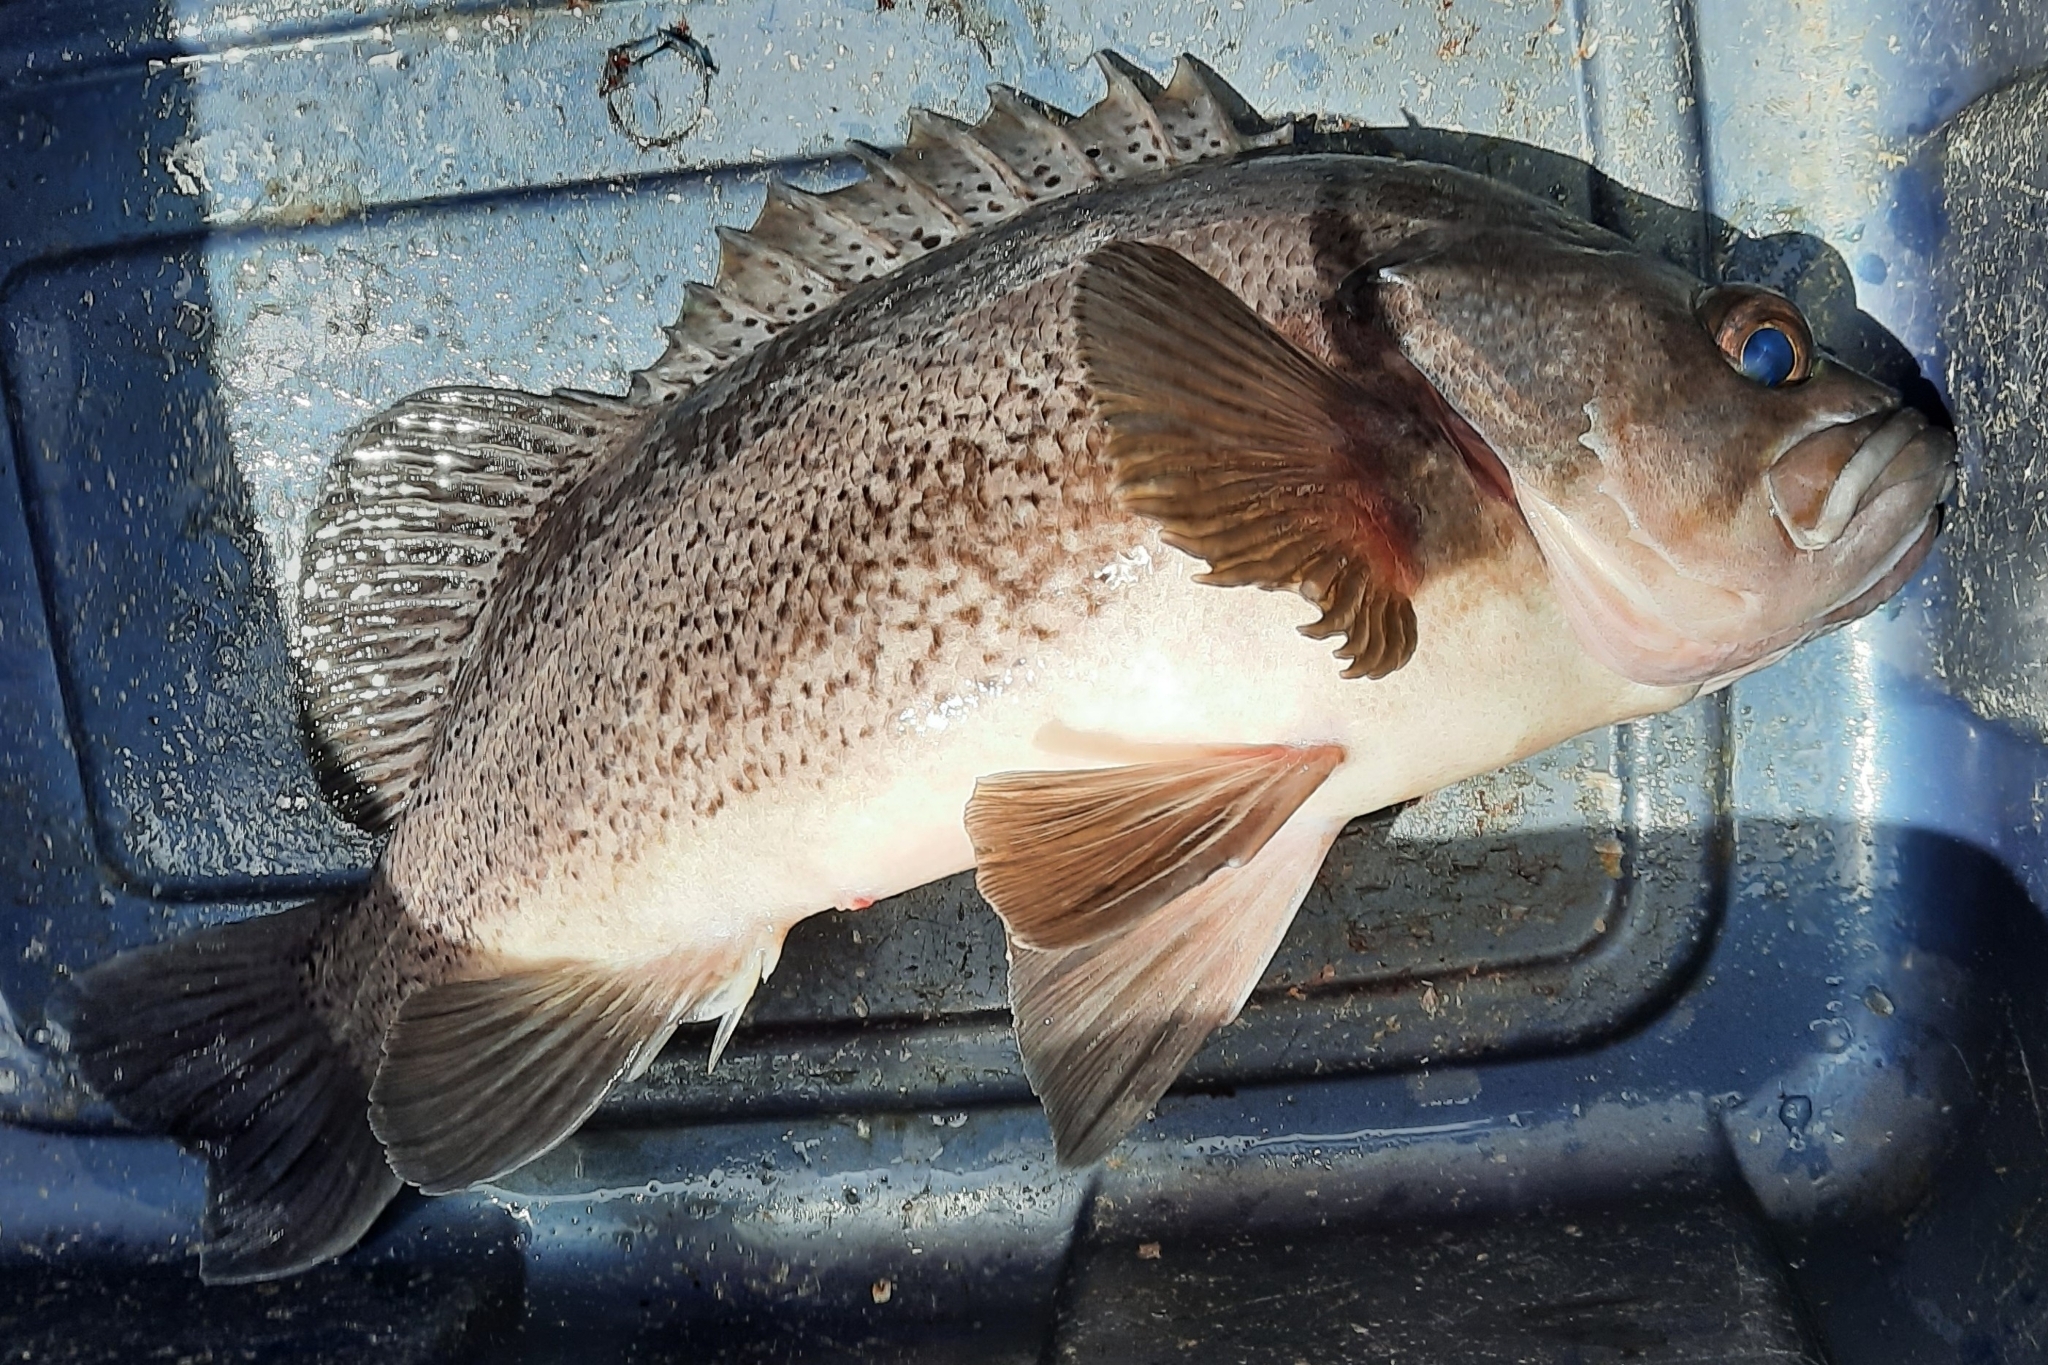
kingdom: Animalia
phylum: Chordata
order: Scorpaeniformes
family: Sebastidae
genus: Sebastes
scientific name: Sebastes melanops
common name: Black rockfish
